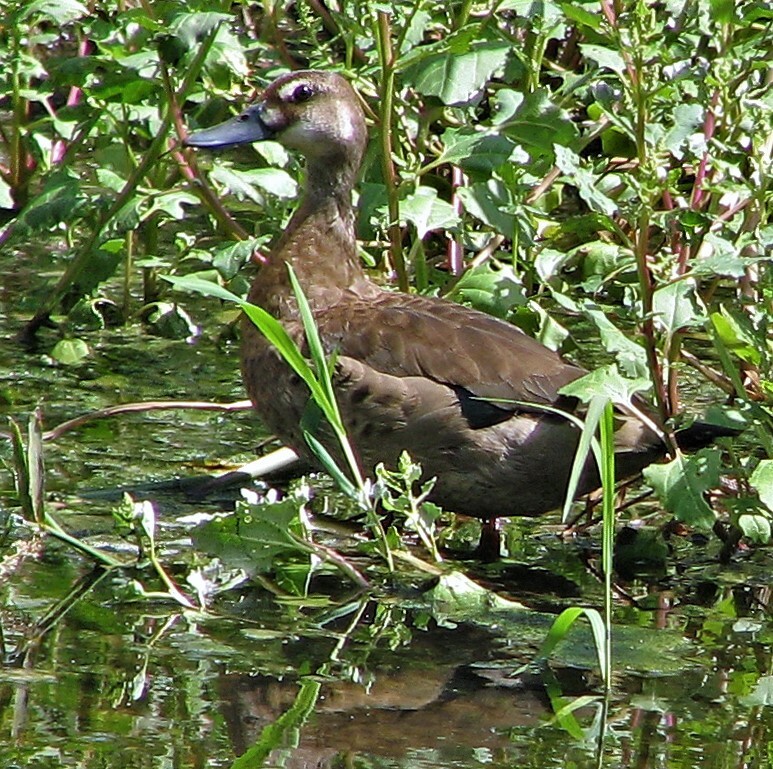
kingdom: Animalia
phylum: Chordata
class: Aves
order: Anseriformes
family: Anatidae
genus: Amazonetta
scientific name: Amazonetta brasiliensis
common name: Brazilian teal
